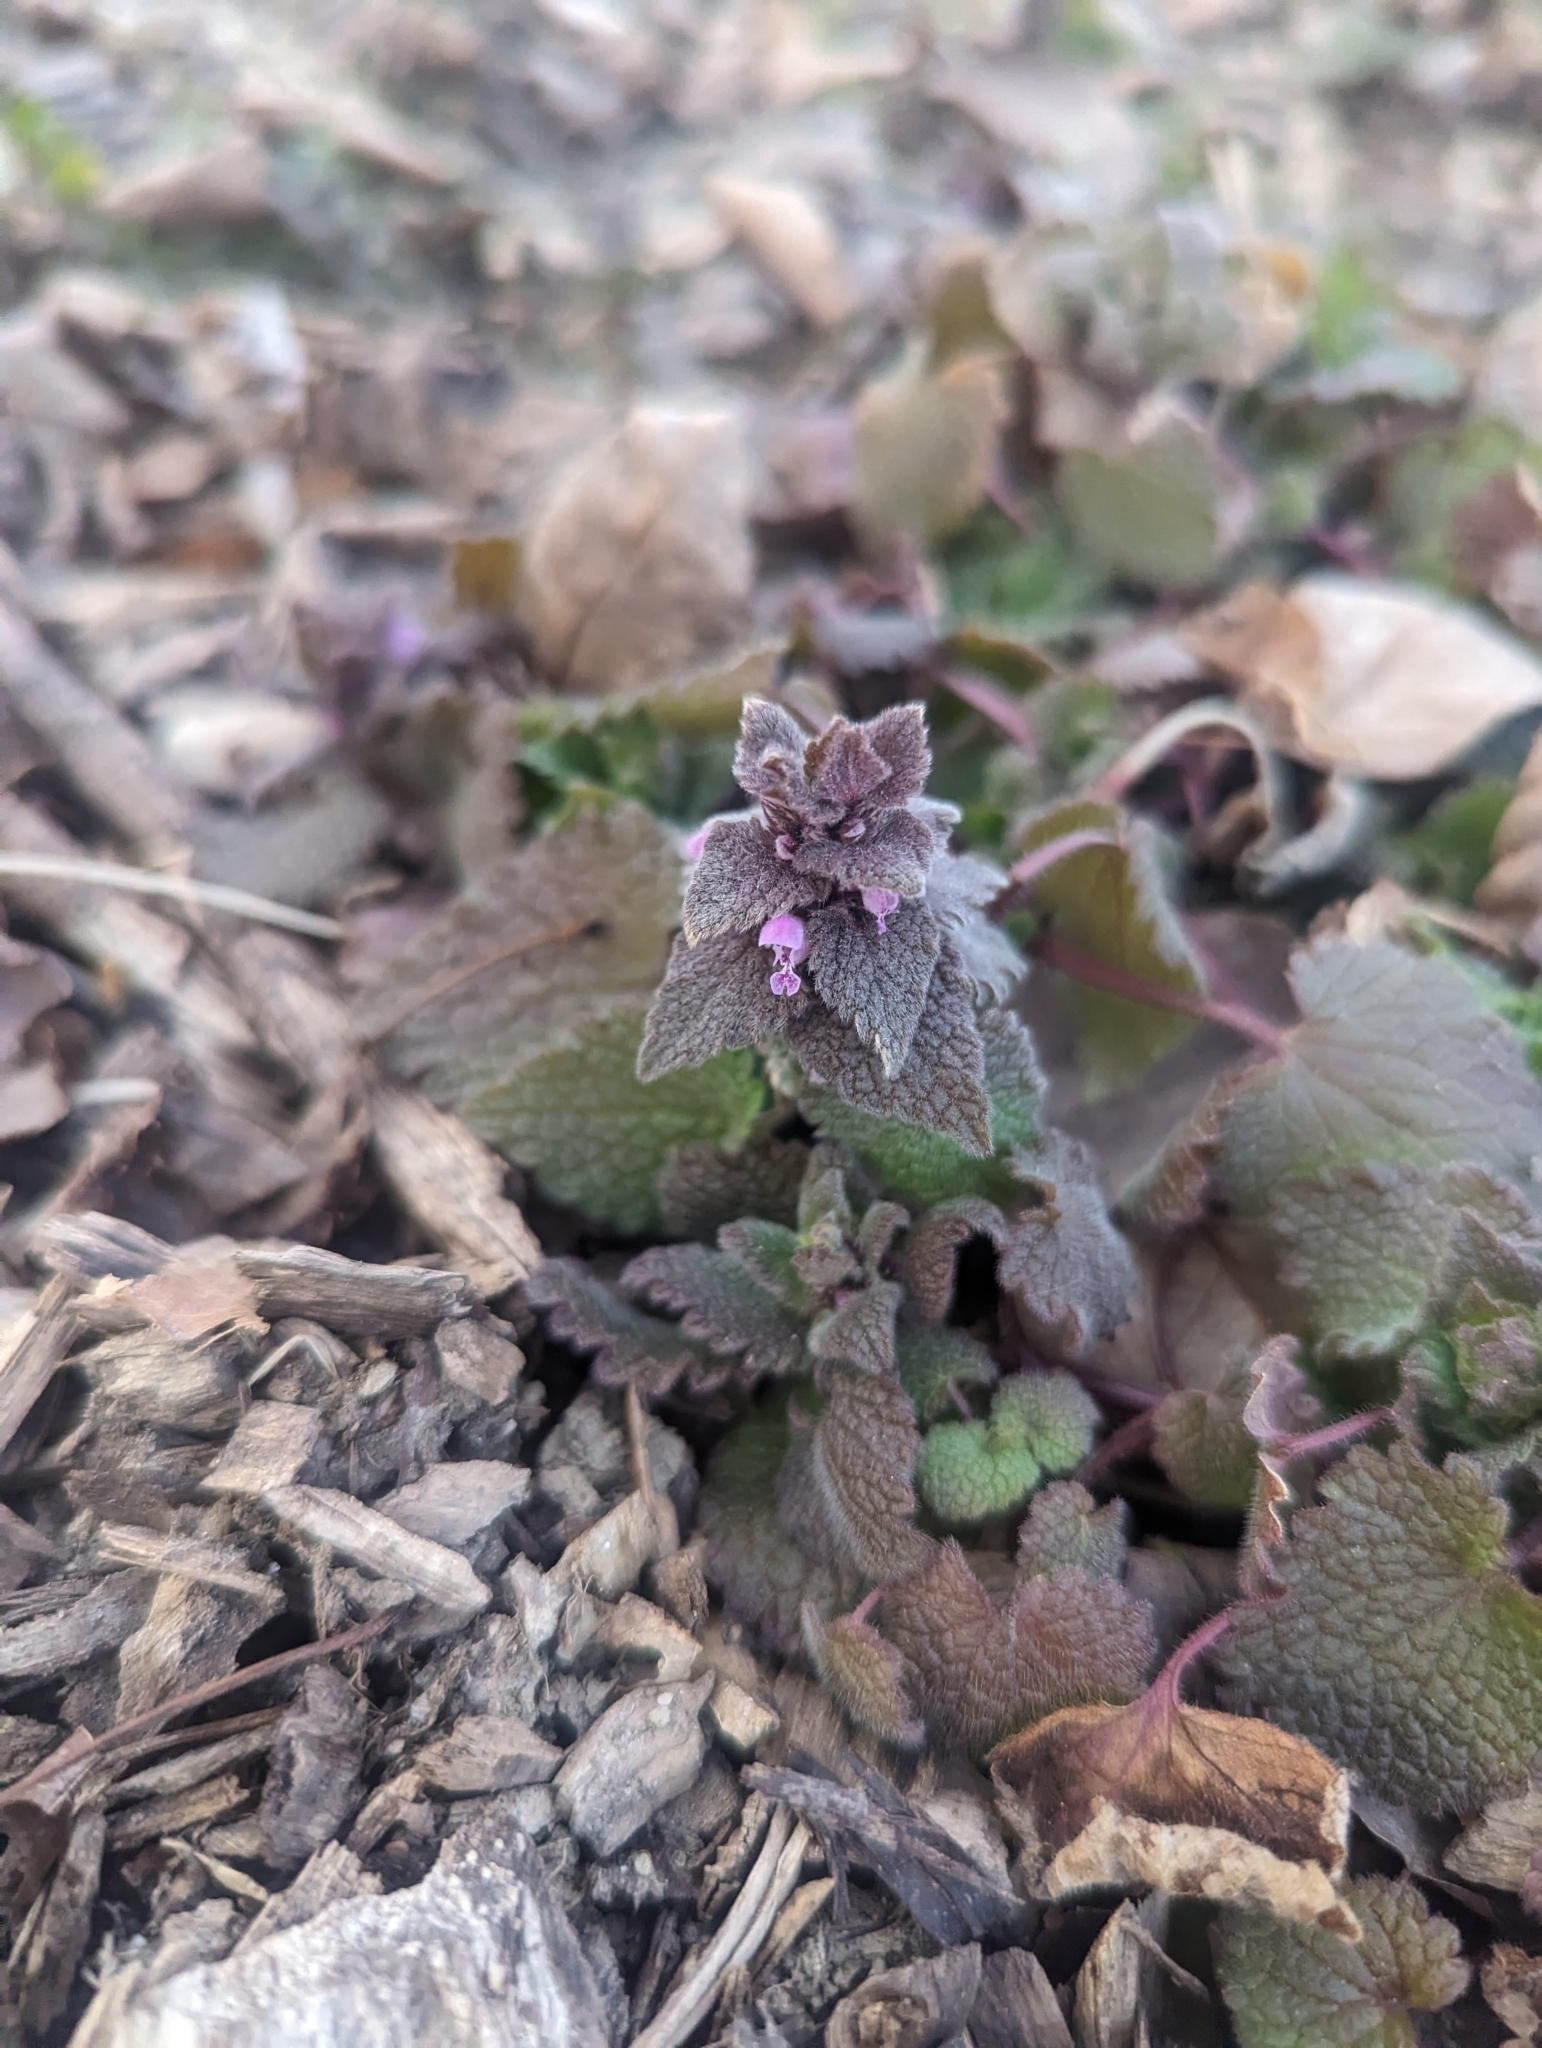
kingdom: Plantae
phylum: Tracheophyta
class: Magnoliopsida
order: Lamiales
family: Lamiaceae
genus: Lamium
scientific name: Lamium purpureum
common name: Red dead-nettle
